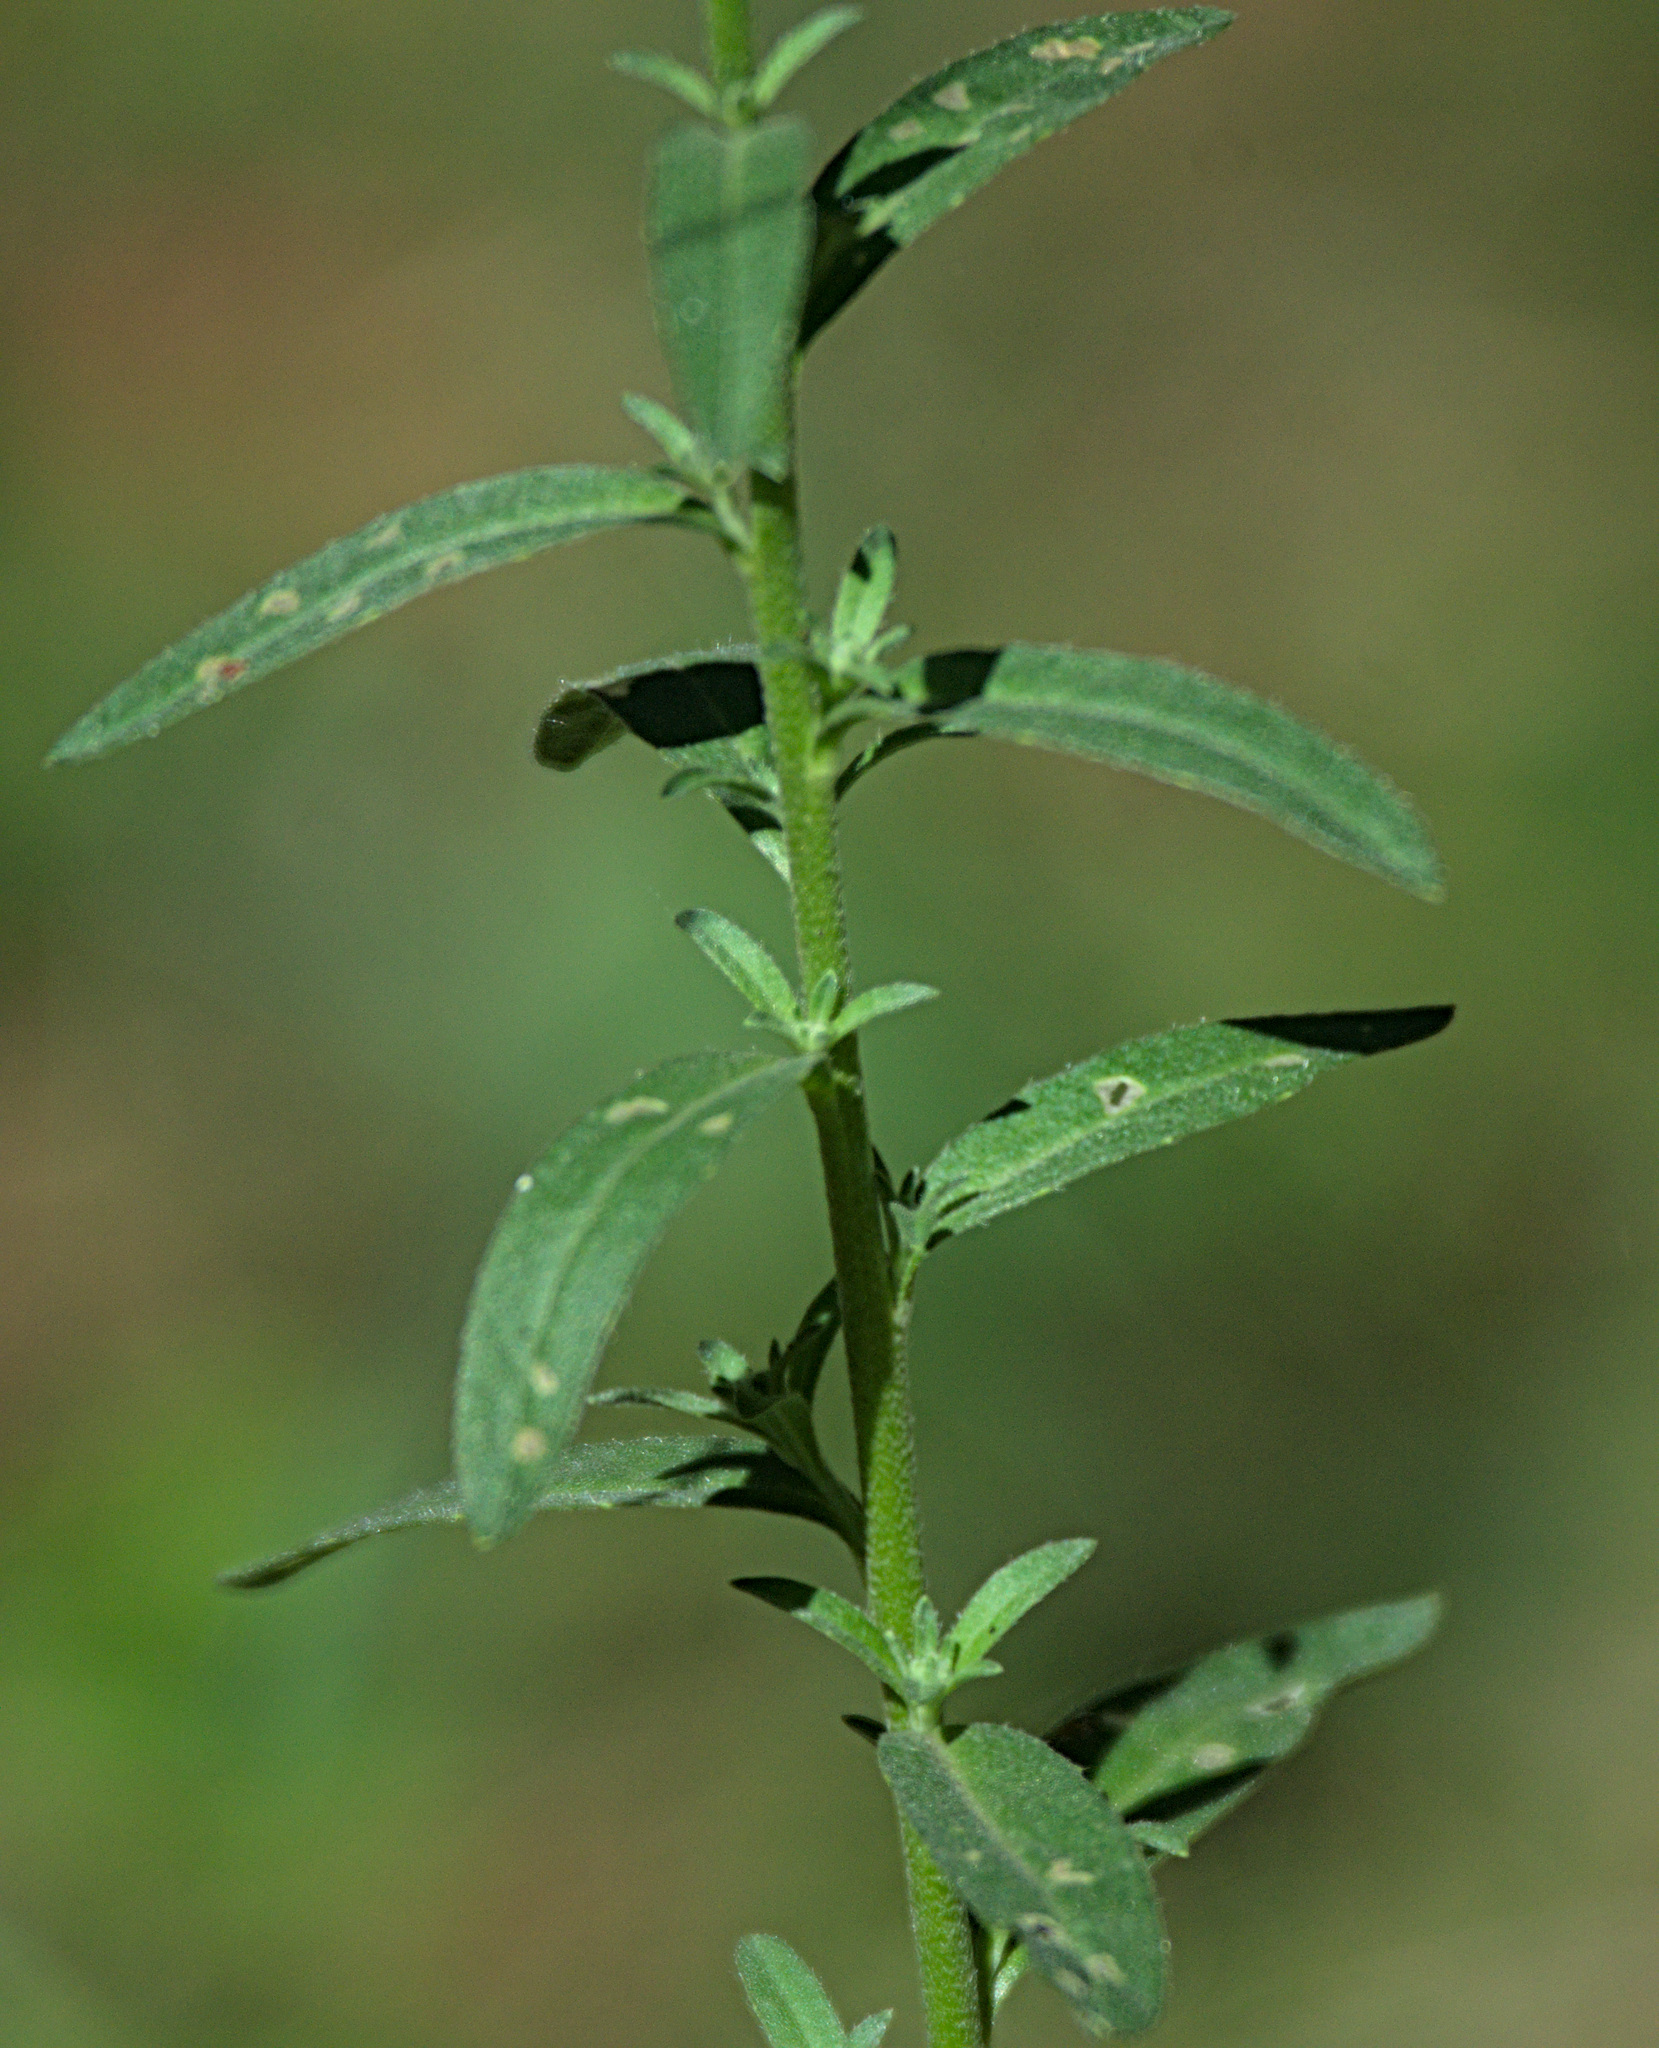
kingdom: Plantae
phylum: Tracheophyta
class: Magnoliopsida
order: Brassicales
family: Brassicaceae
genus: Berteroa
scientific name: Berteroa incana
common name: Hoary alison
